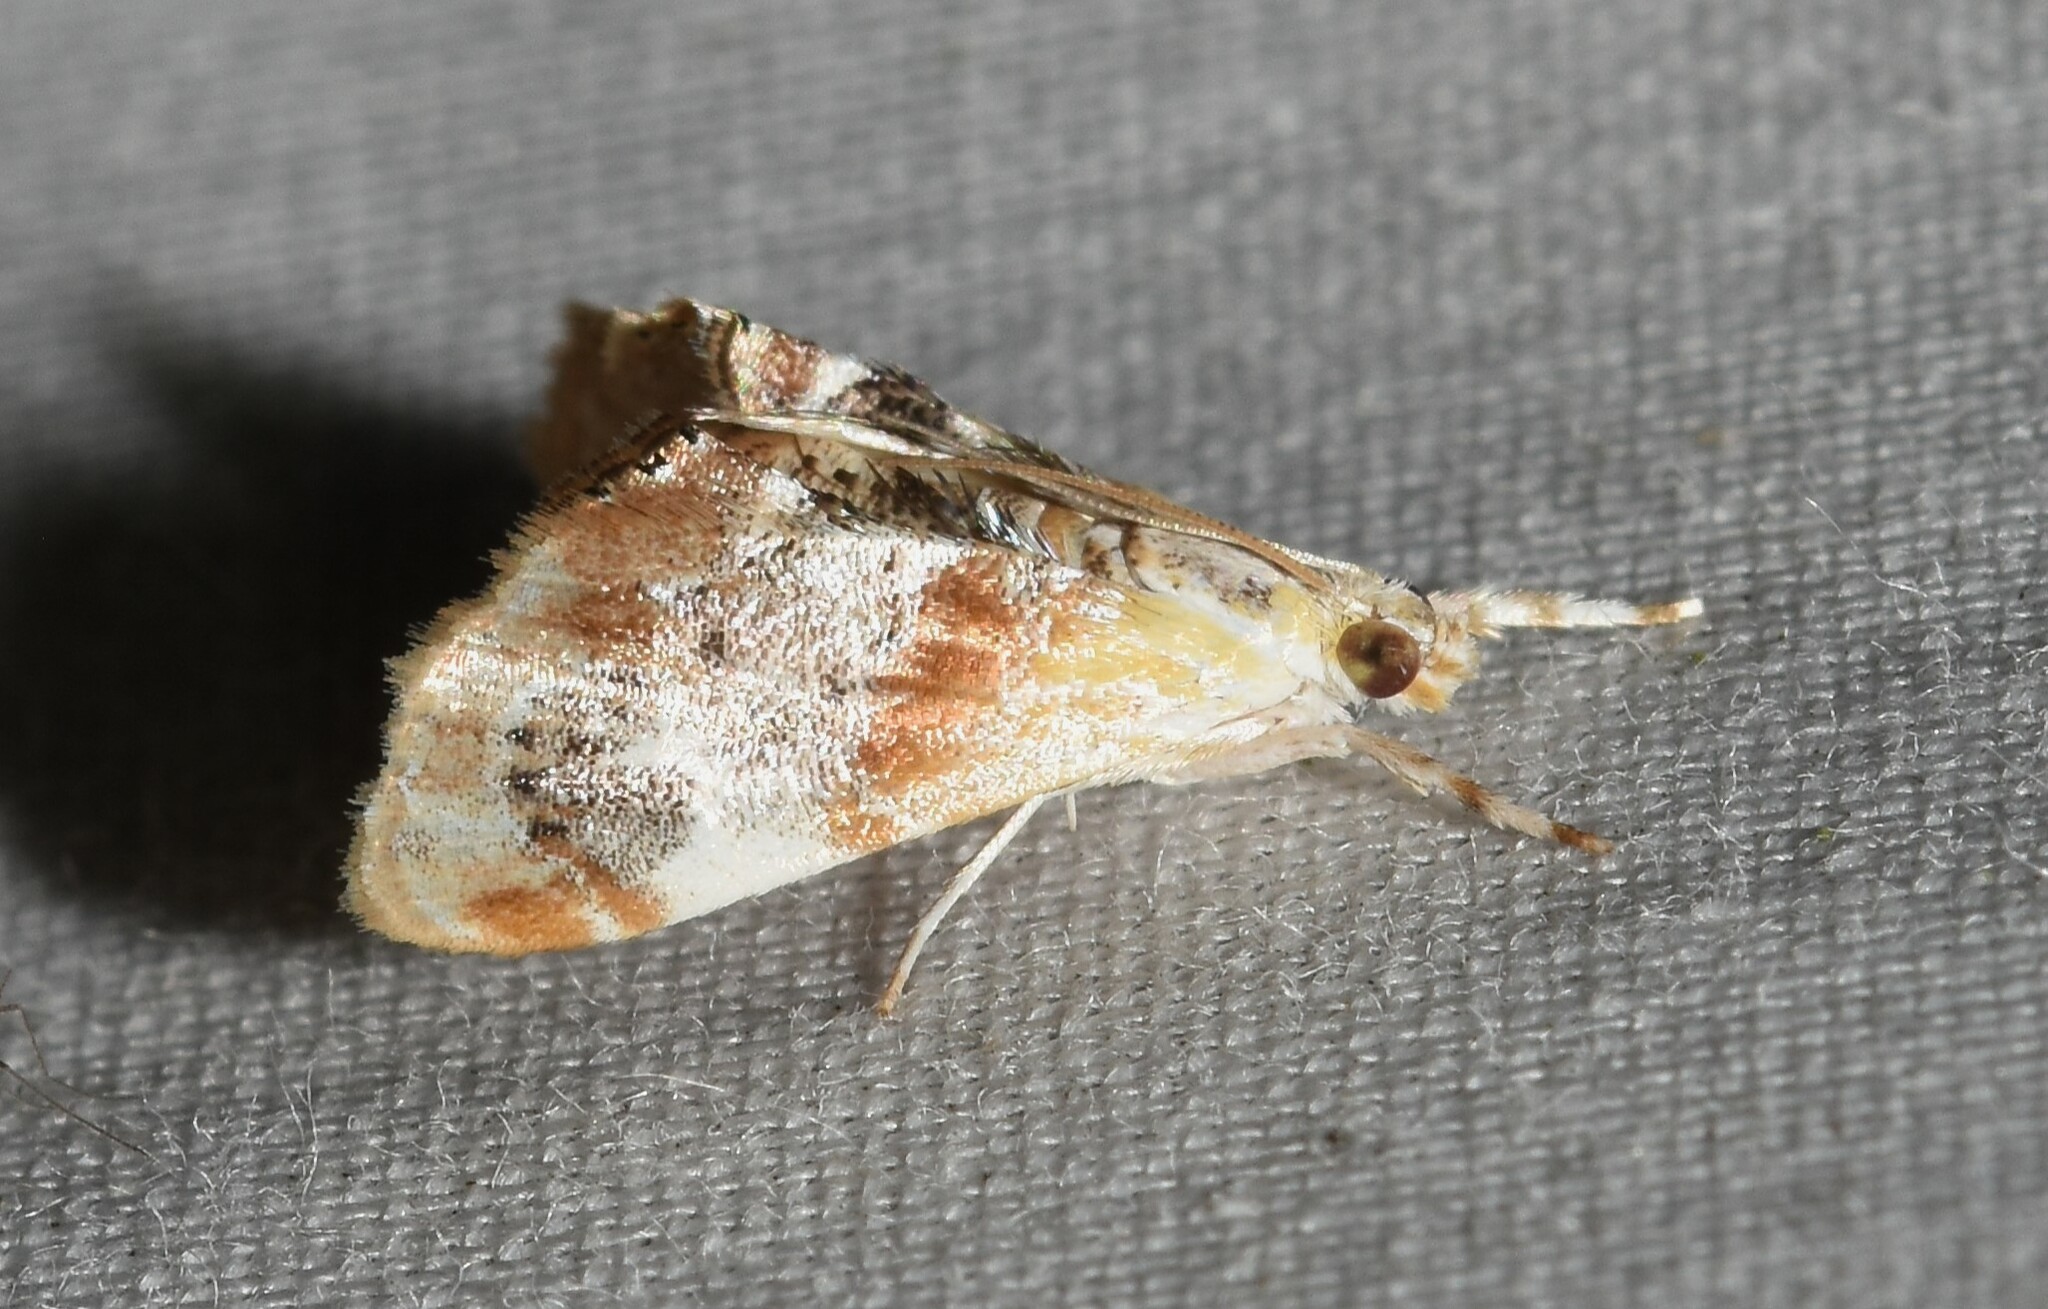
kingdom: Animalia
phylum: Arthropoda
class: Insecta
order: Lepidoptera
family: Crambidae
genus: Dicymolomia
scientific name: Dicymolomia julianalis
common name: Julia's dicymolomia moth
